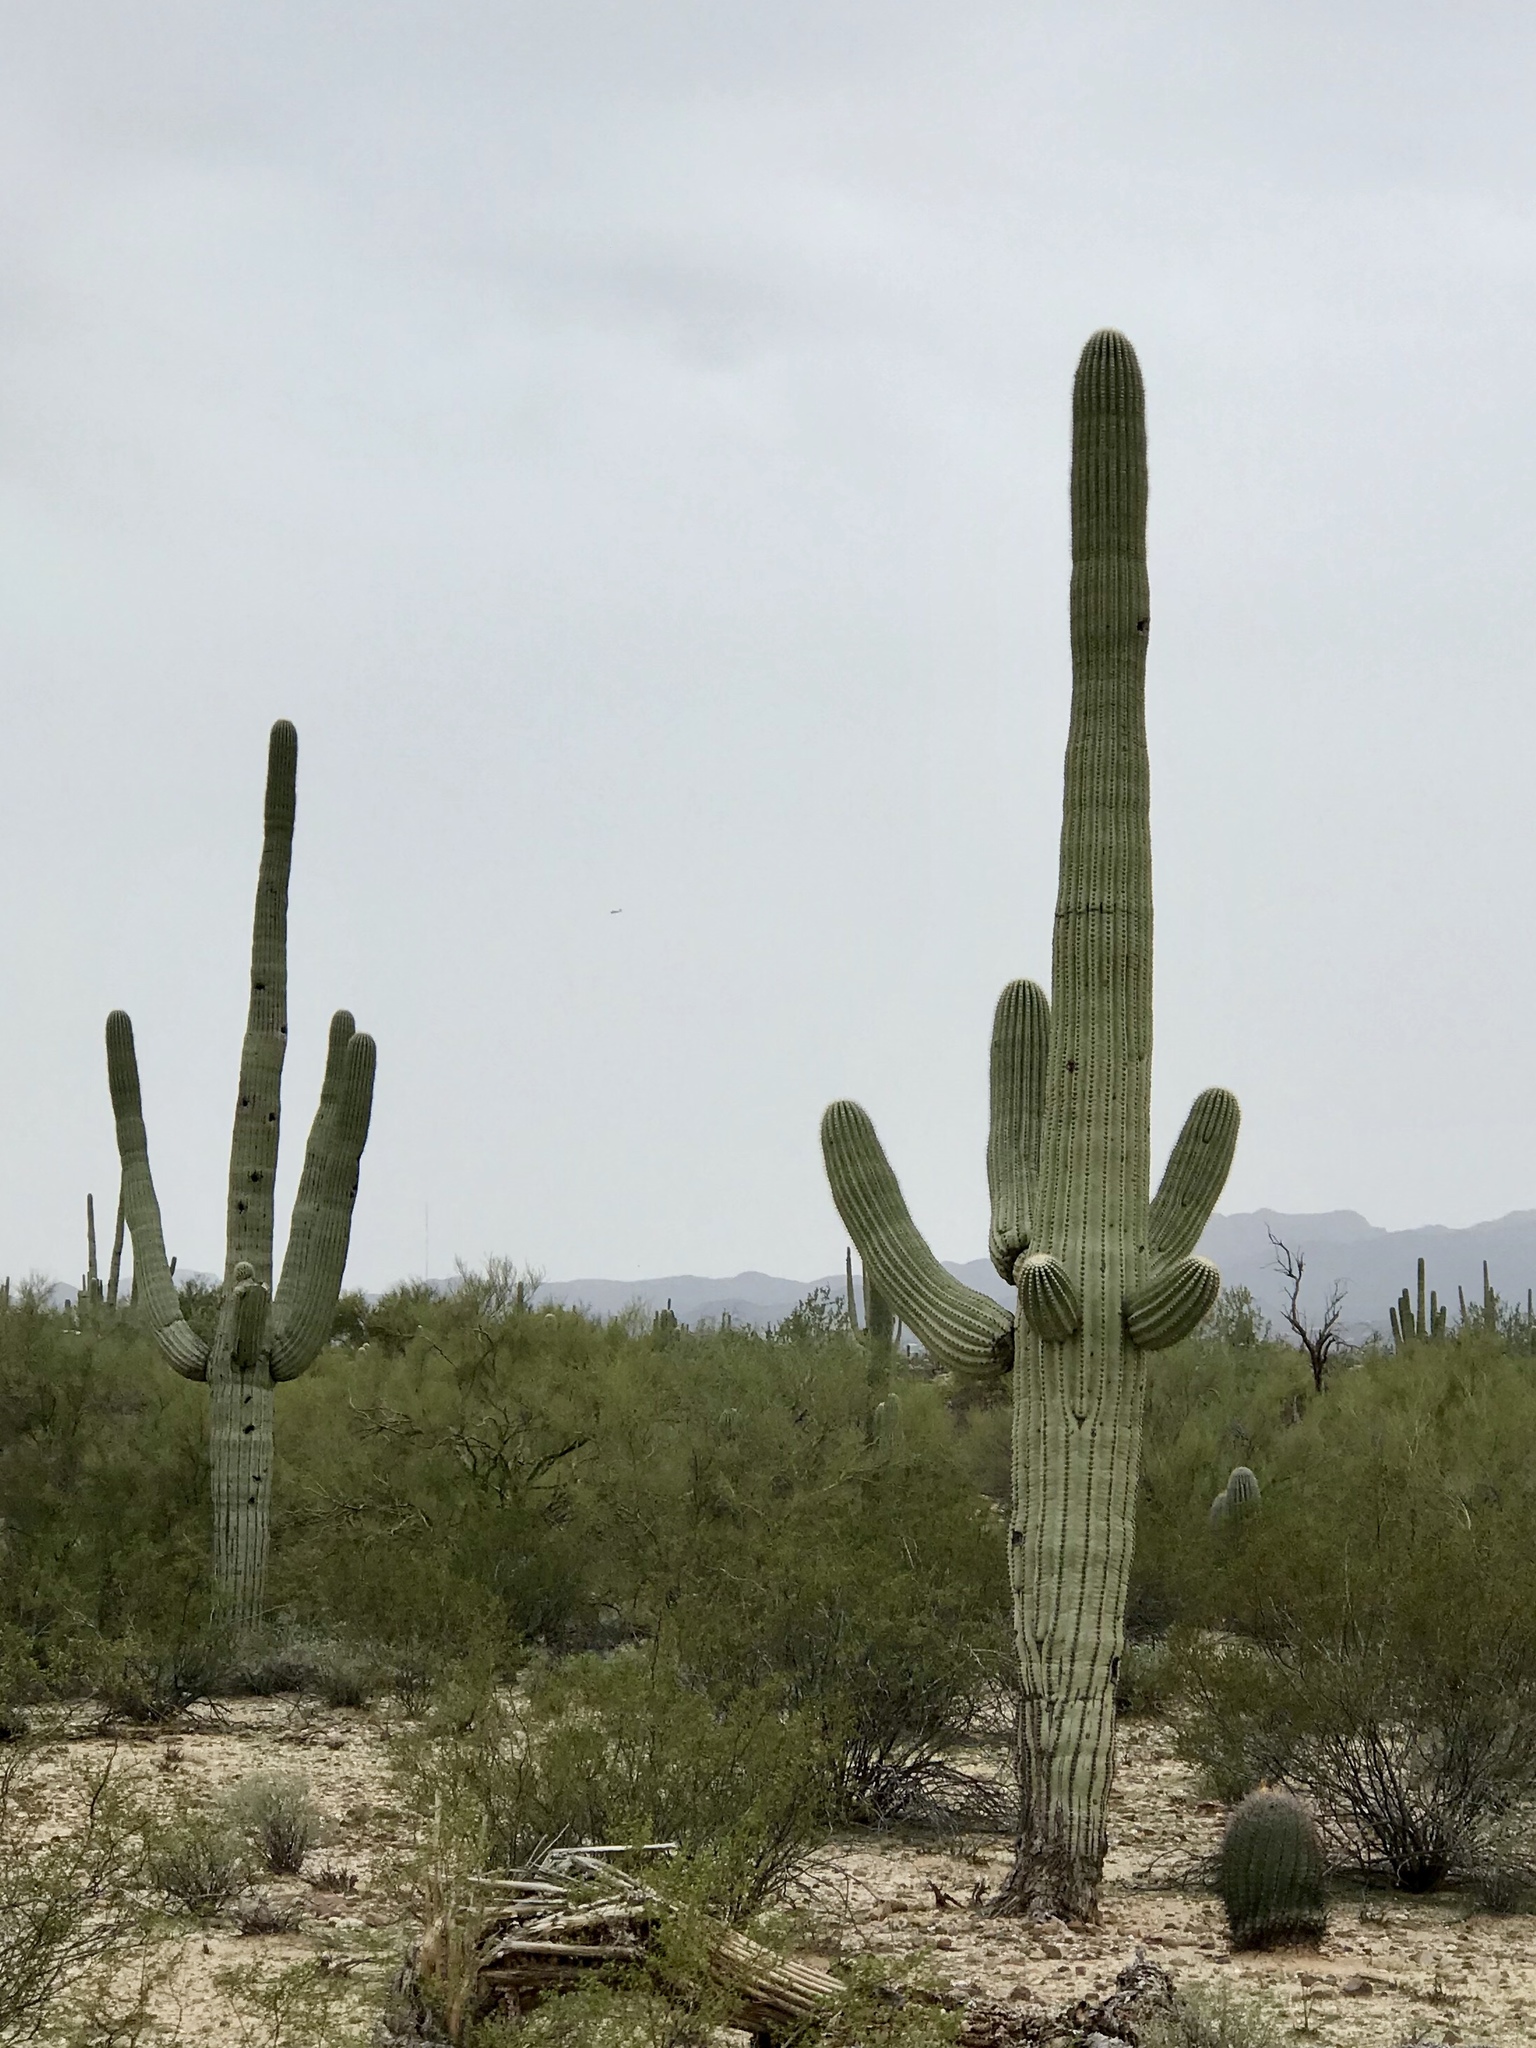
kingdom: Plantae
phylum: Tracheophyta
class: Magnoliopsida
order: Caryophyllales
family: Cactaceae
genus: Carnegiea
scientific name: Carnegiea gigantea
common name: Saguaro
